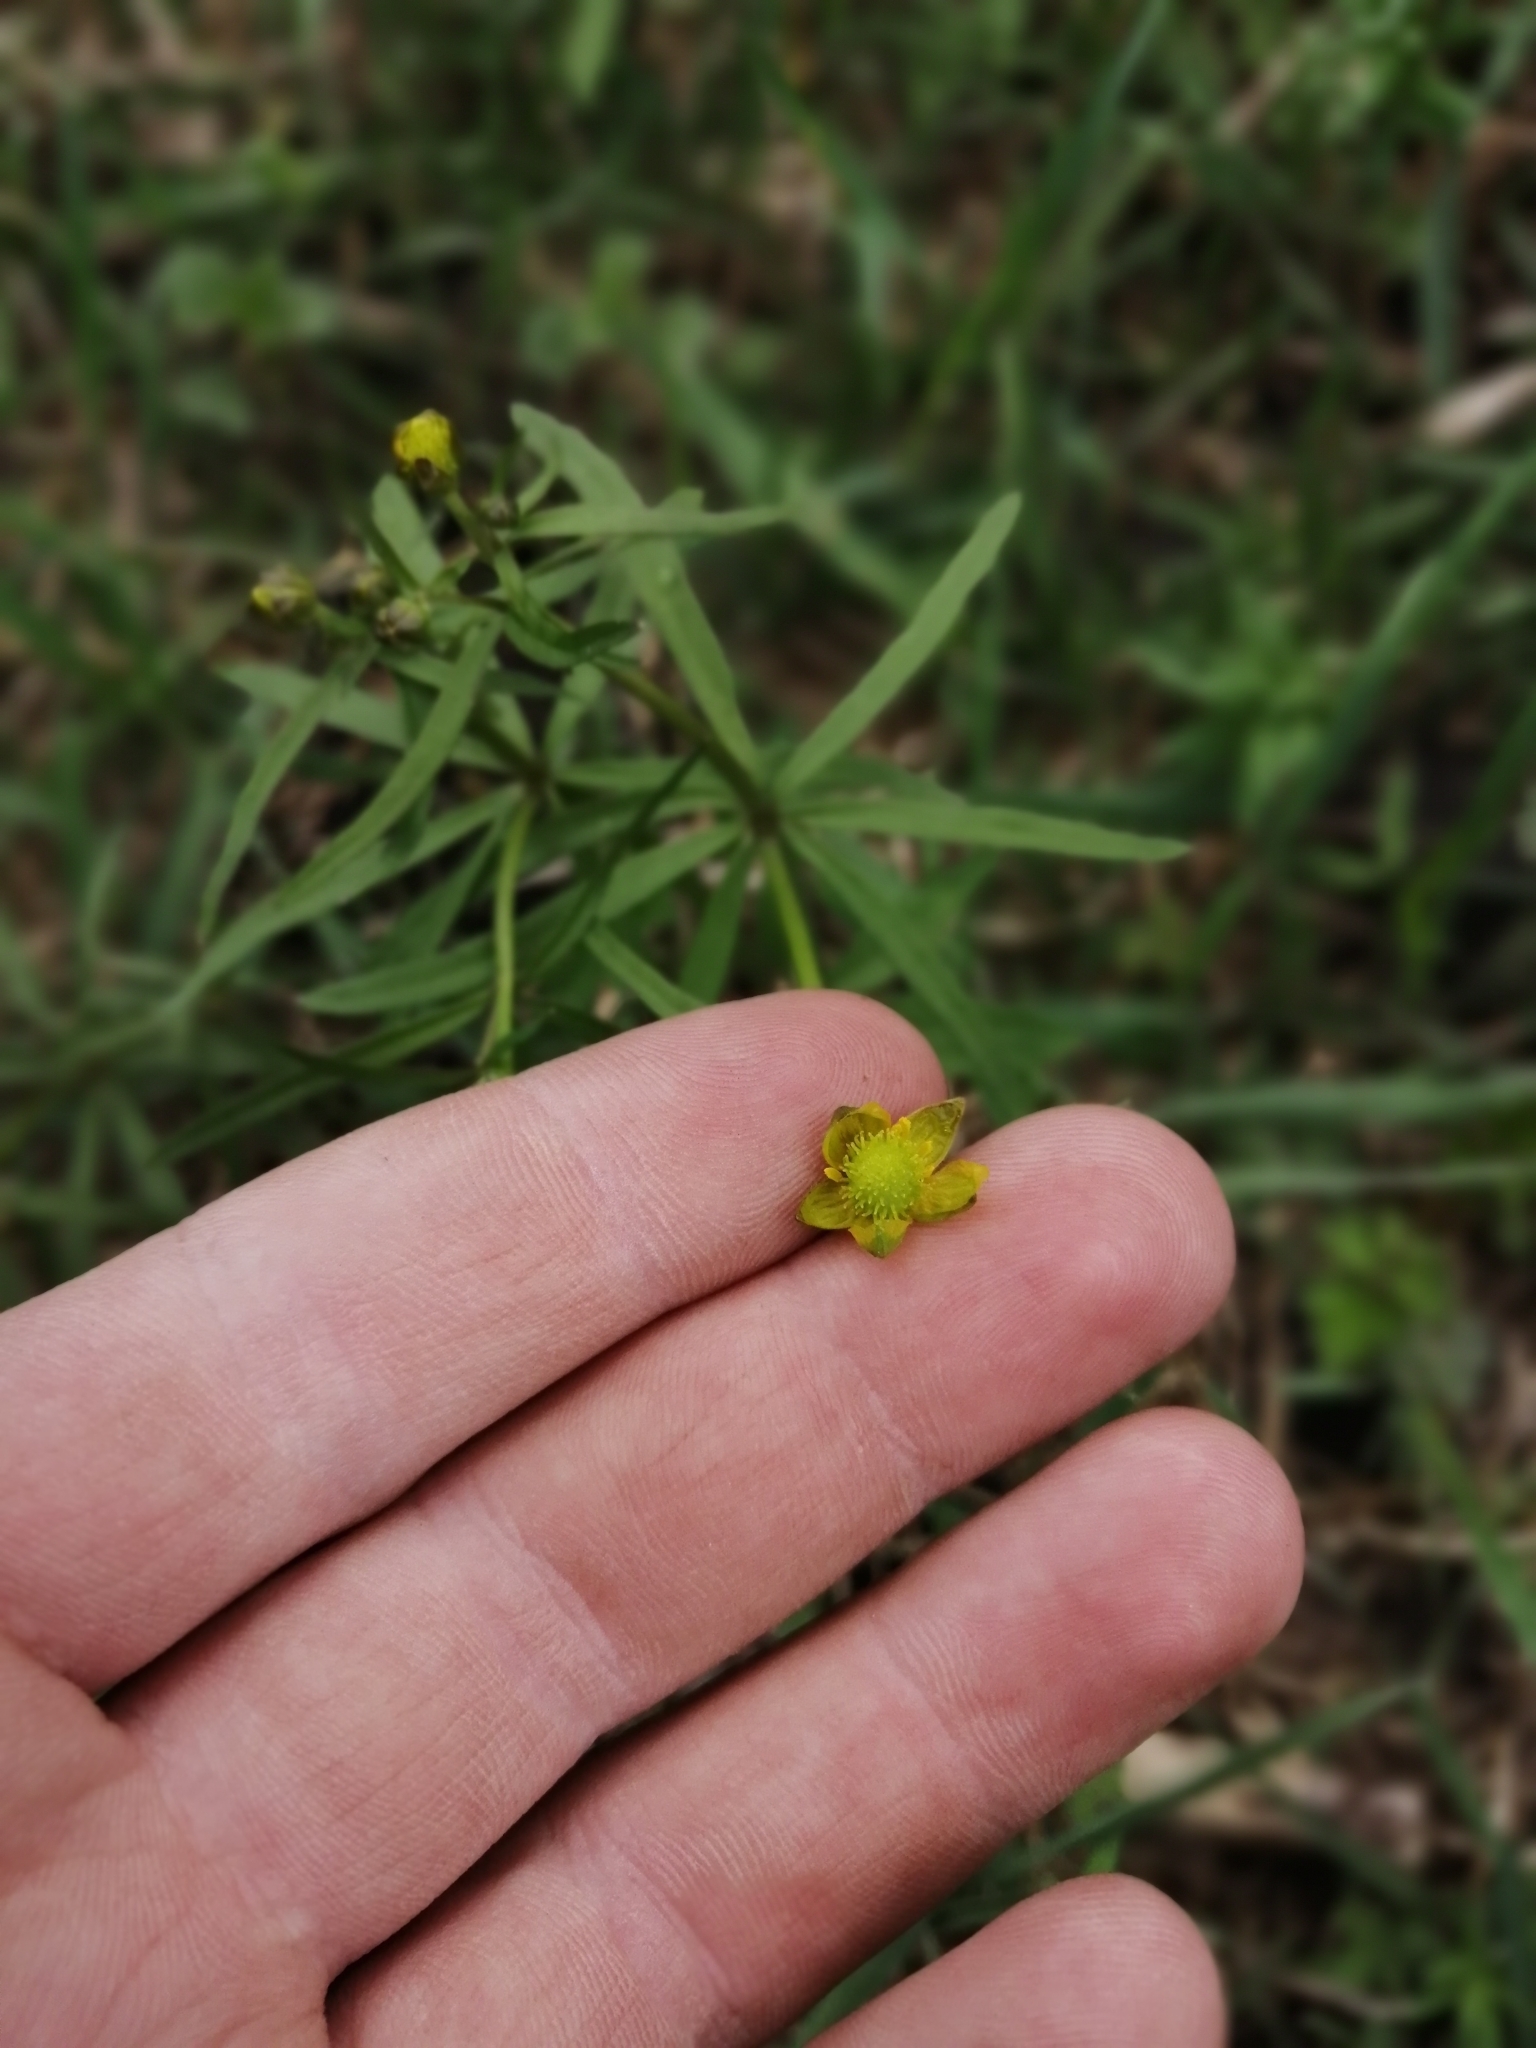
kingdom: Plantae
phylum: Tracheophyta
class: Magnoliopsida
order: Ranunculales
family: Ranunculaceae
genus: Ranunculus
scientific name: Ranunculus monophyllus
